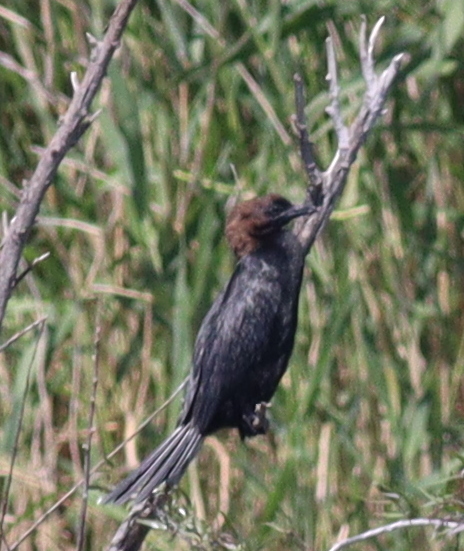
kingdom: Animalia
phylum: Chordata
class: Aves
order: Suliformes
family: Phalacrocoracidae
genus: Microcarbo
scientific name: Microcarbo pygmaeus
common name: Pygmy cormorant
